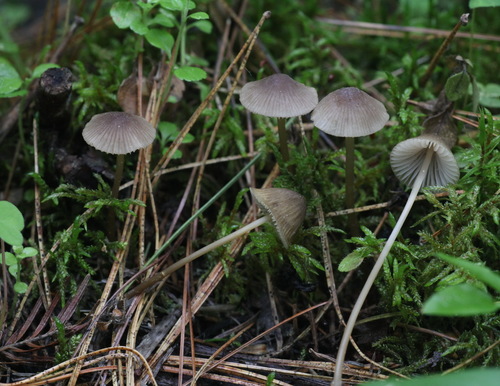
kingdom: Fungi
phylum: Basidiomycota
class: Agaricomycetes
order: Agaricales
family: Mycenaceae
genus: Mycena
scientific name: Mycena viridimarginata
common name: Olive edge bonnet
